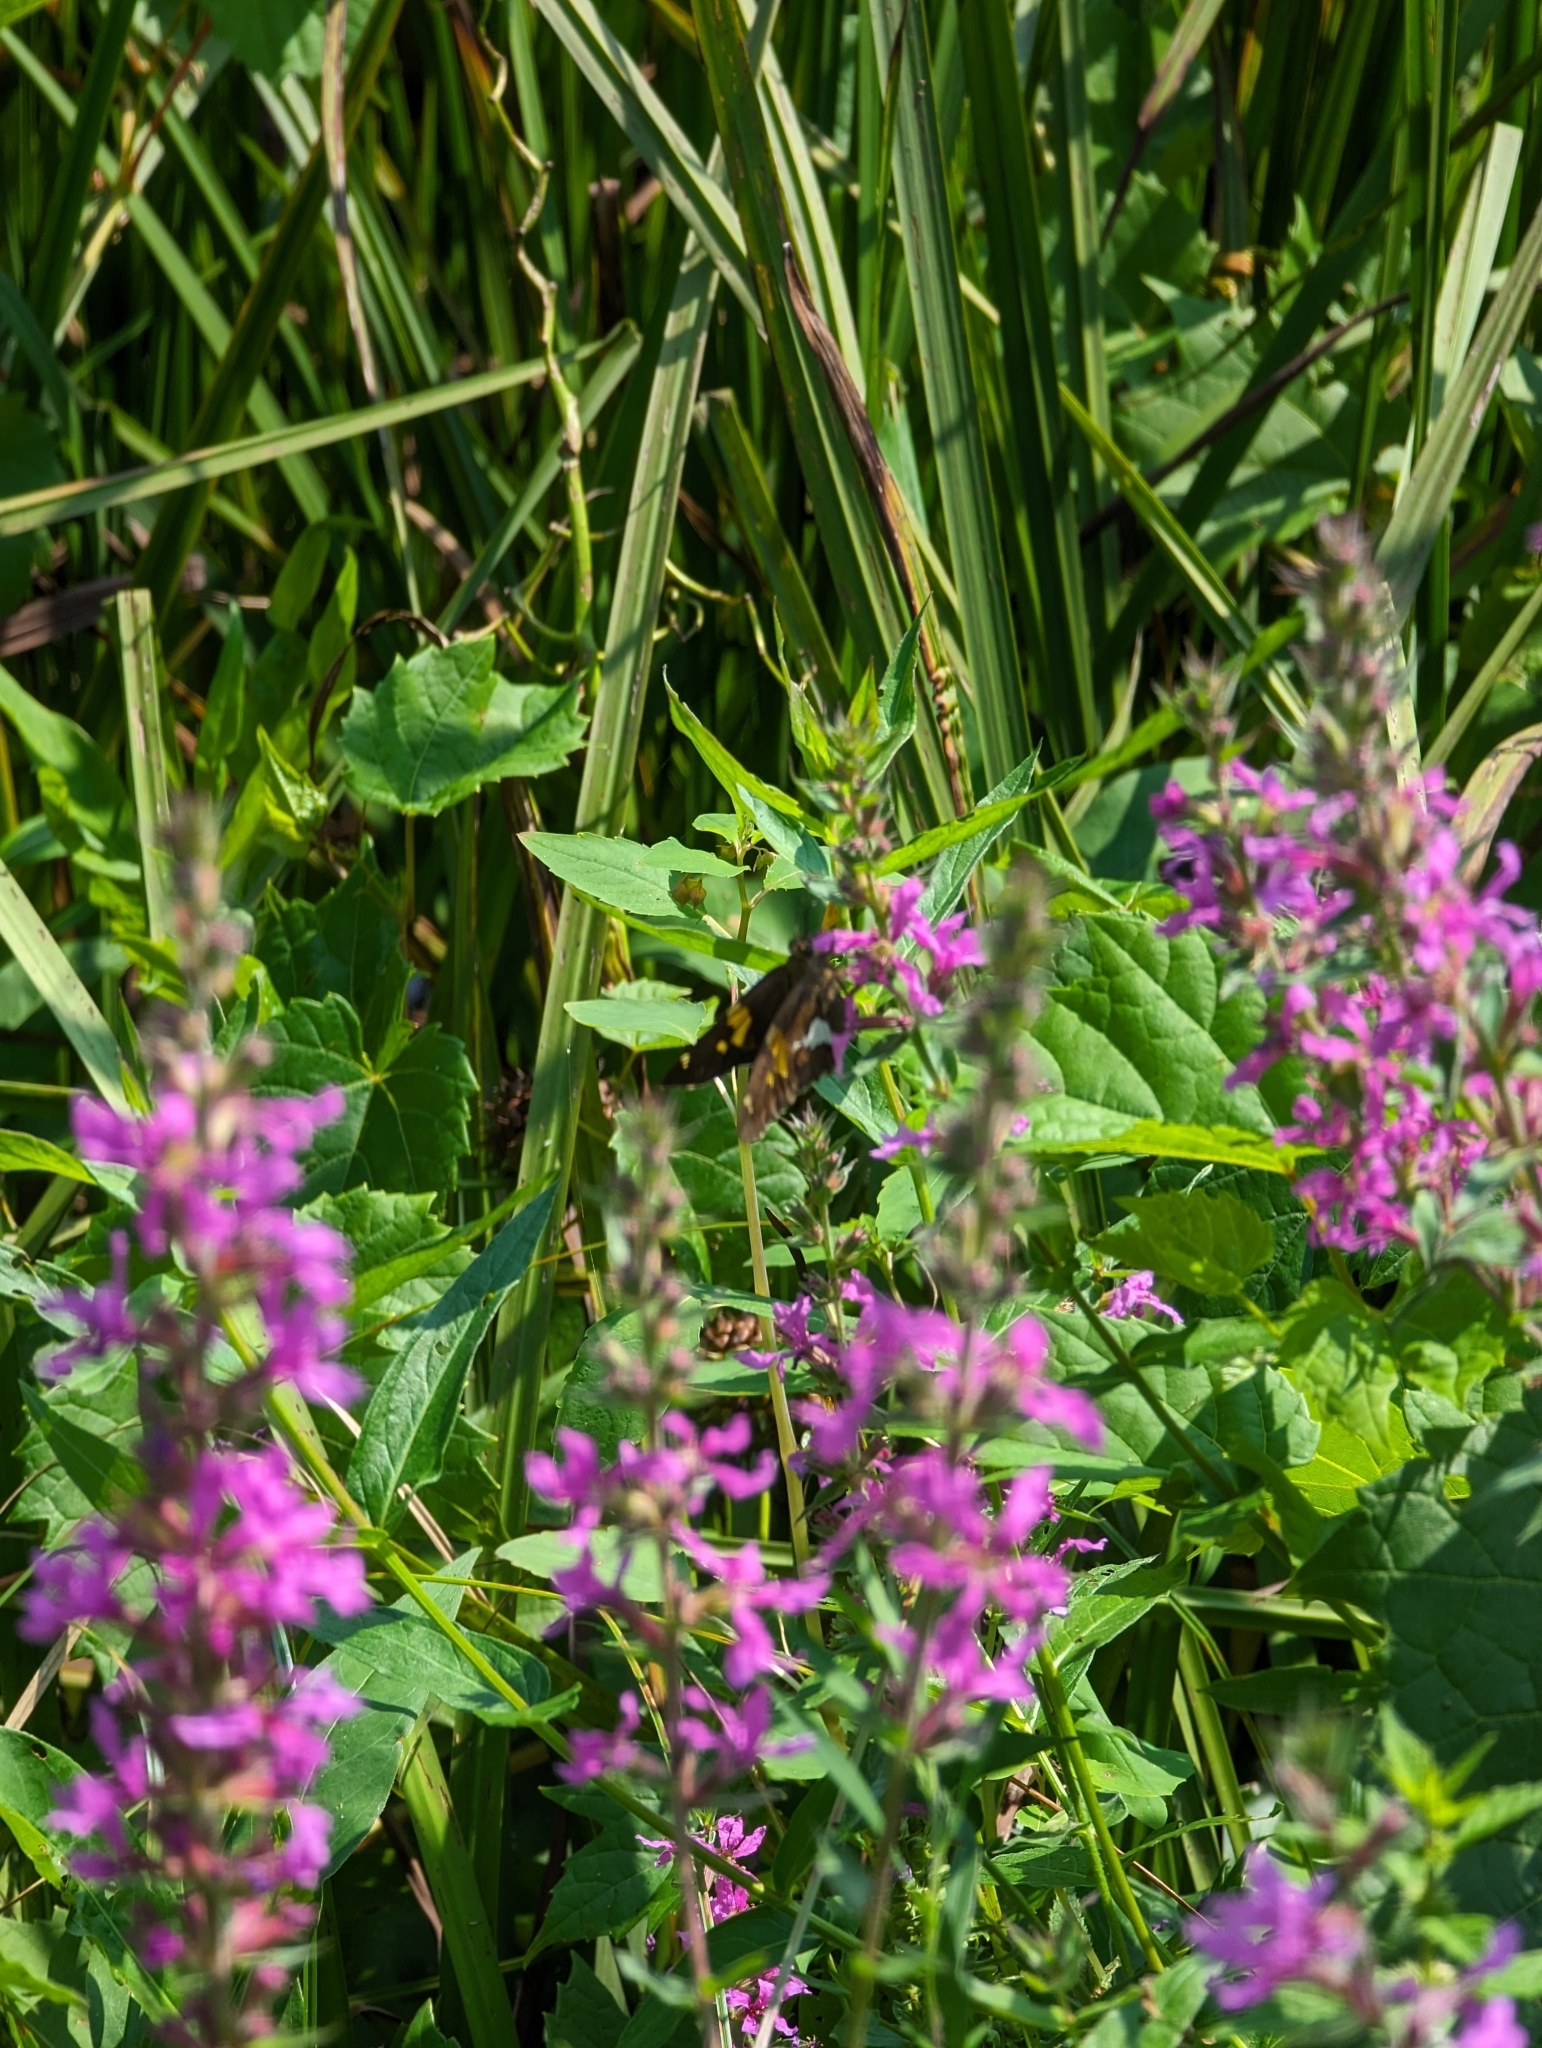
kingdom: Animalia
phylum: Arthropoda
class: Insecta
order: Lepidoptera
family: Hesperiidae
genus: Epargyreus
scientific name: Epargyreus clarus
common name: Silver-spotted skipper
